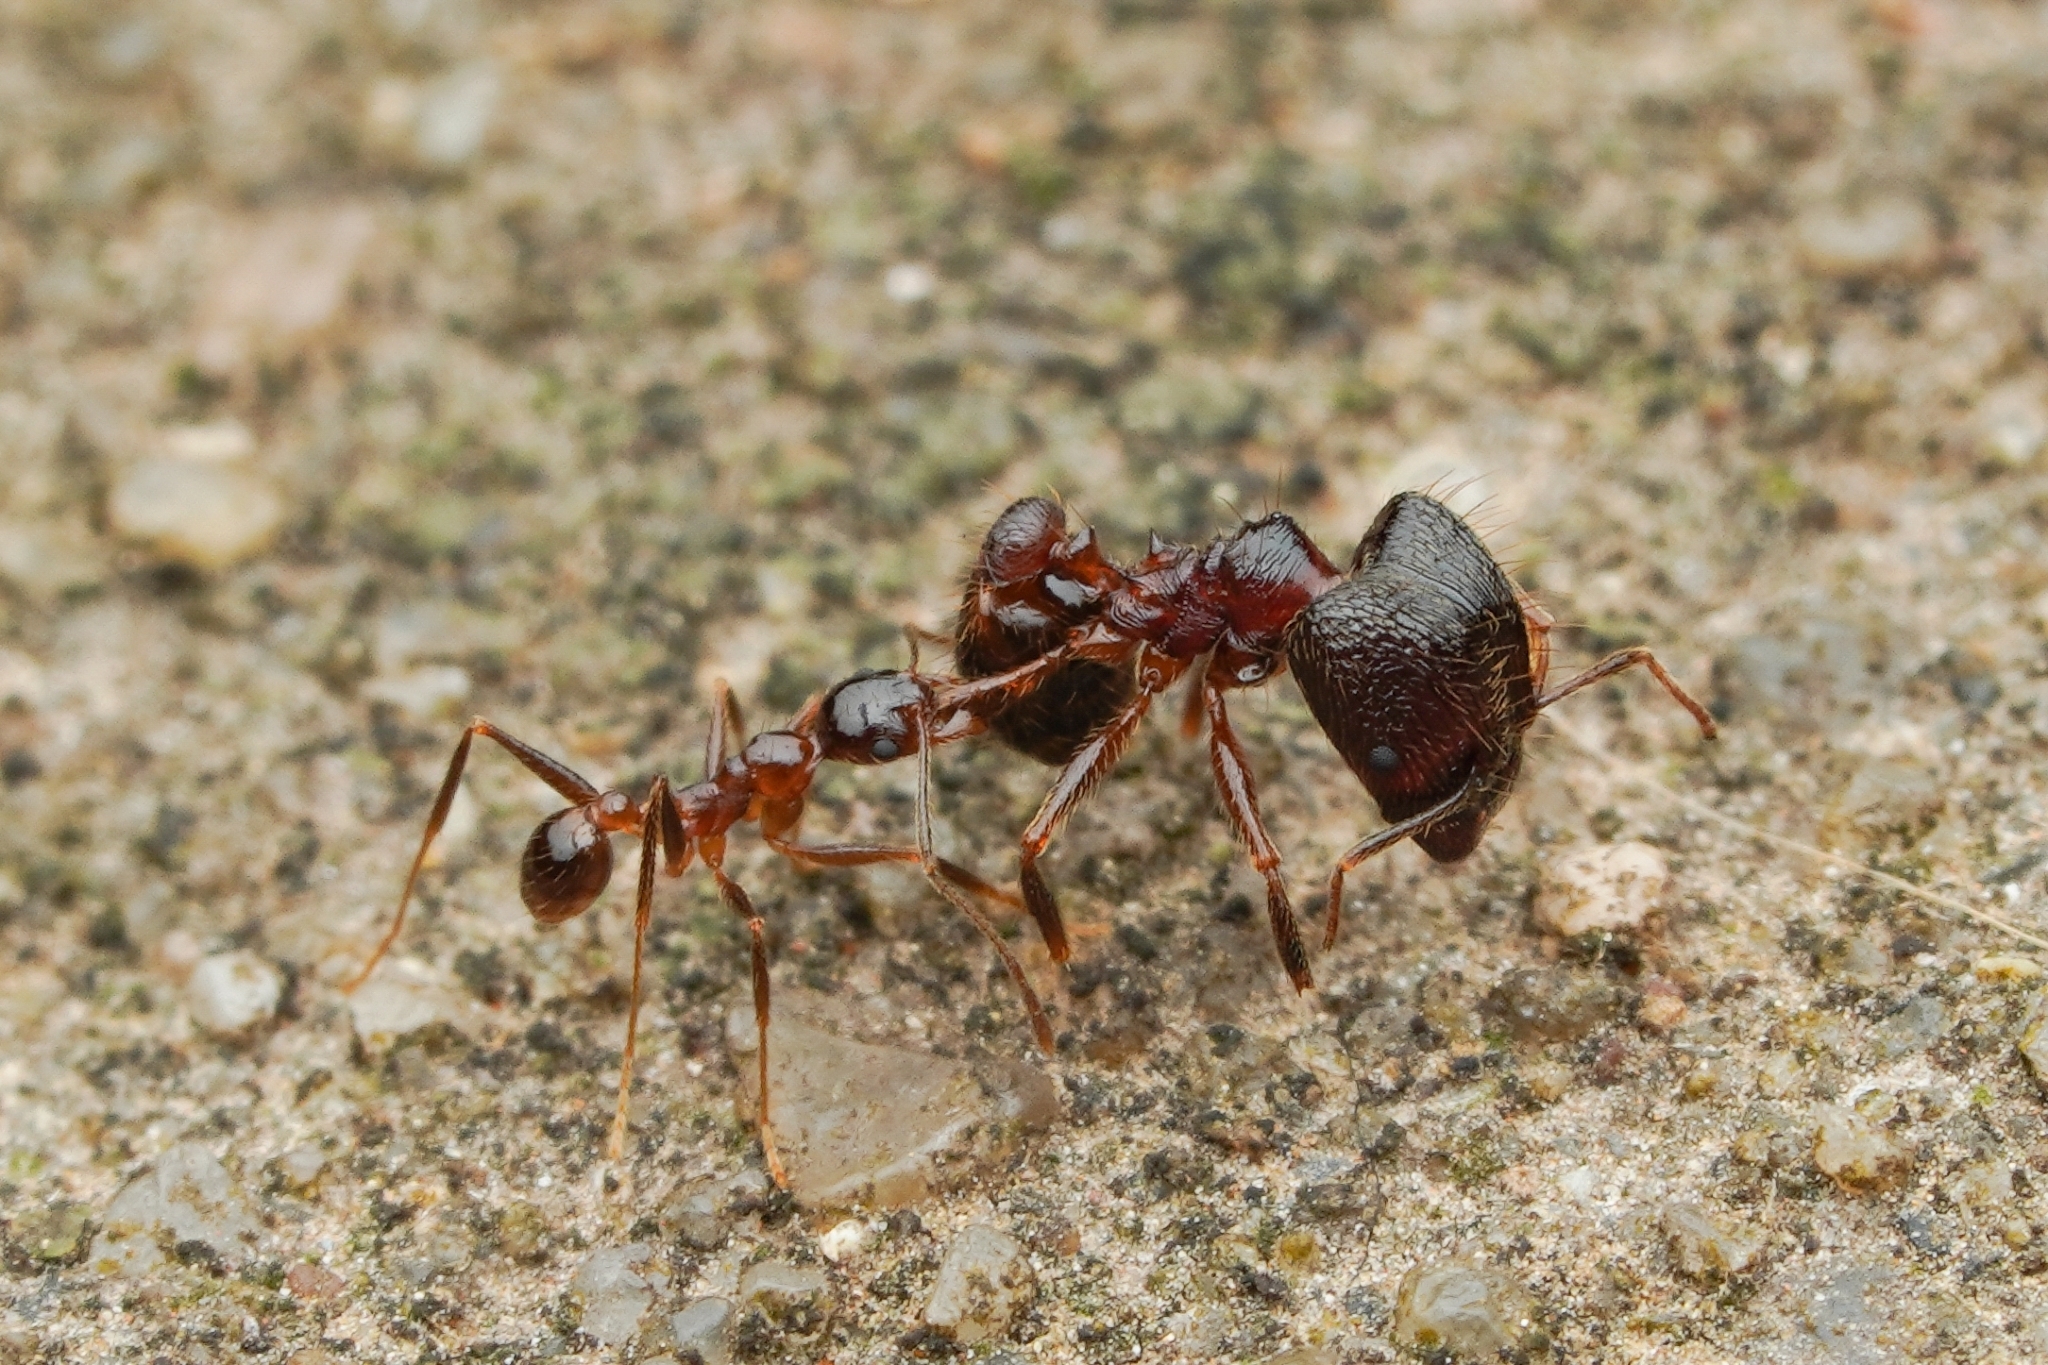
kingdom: Animalia
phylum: Arthropoda
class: Insecta
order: Hymenoptera
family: Formicidae
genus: Pheidole
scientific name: Pheidole noda
